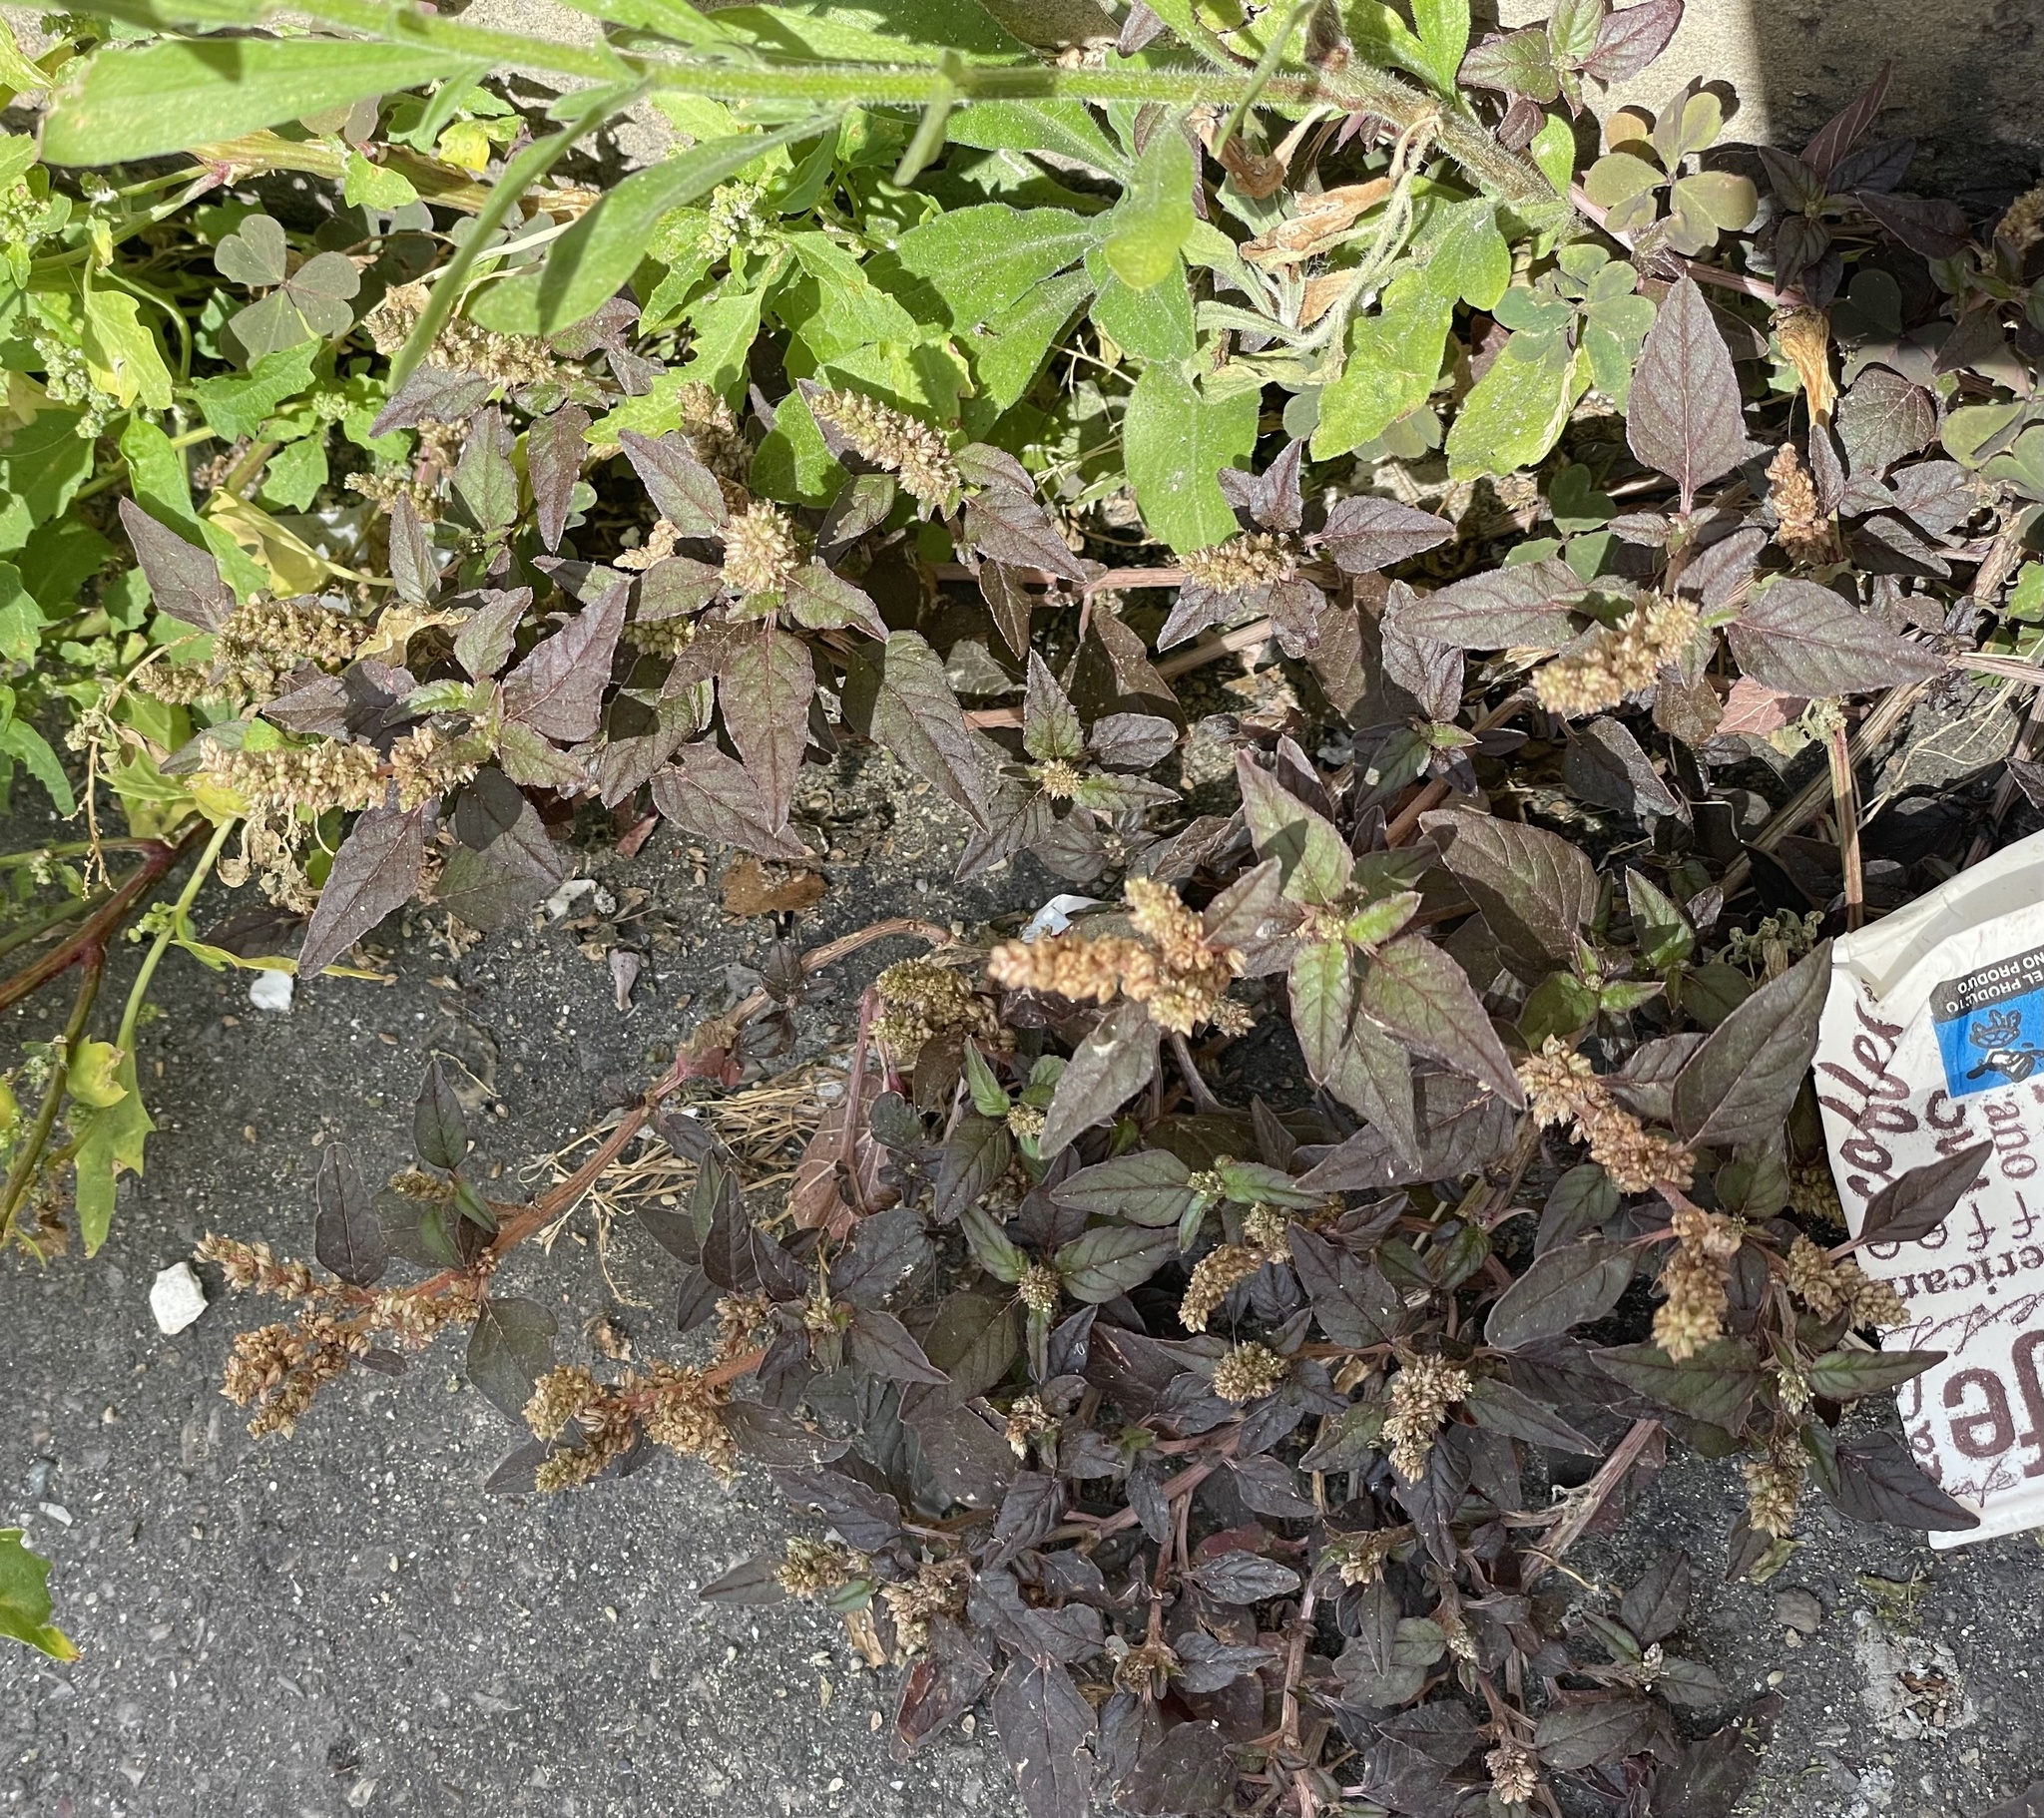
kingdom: Plantae
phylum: Tracheophyta
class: Magnoliopsida
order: Caryophyllales
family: Amaranthaceae
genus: Amaranthus
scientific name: Amaranthus deflexus
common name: Perennial pigweed
